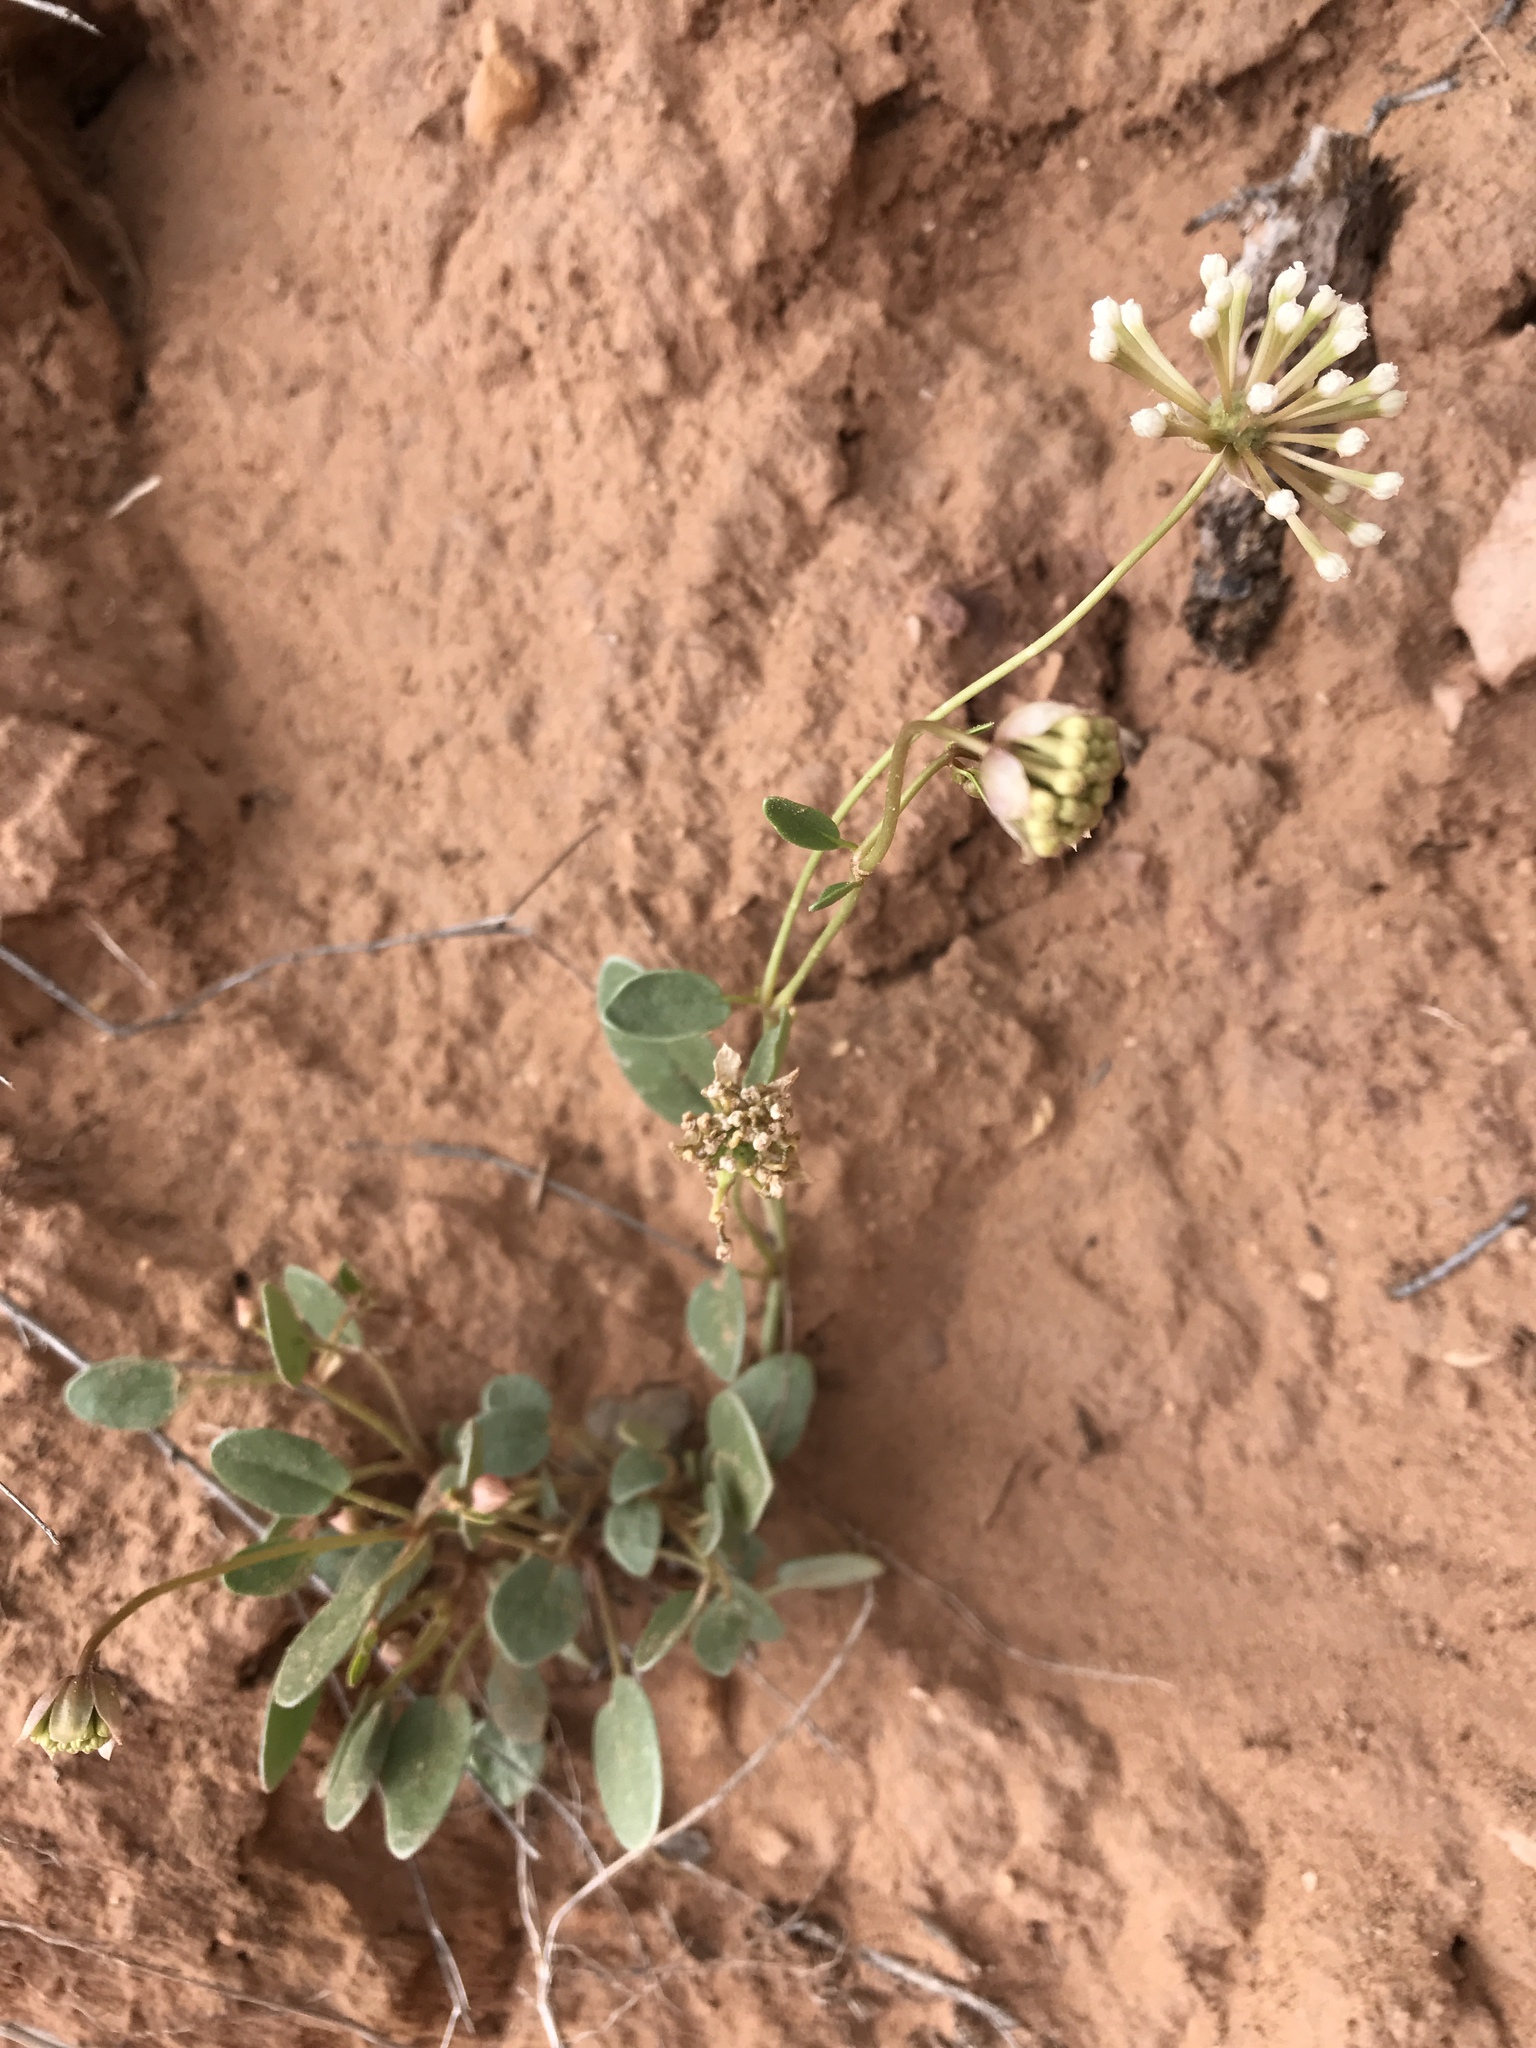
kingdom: Plantae
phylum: Tracheophyta
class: Magnoliopsida
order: Caryophyllales
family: Nyctaginaceae
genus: Abronia
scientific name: Abronia elliptica
